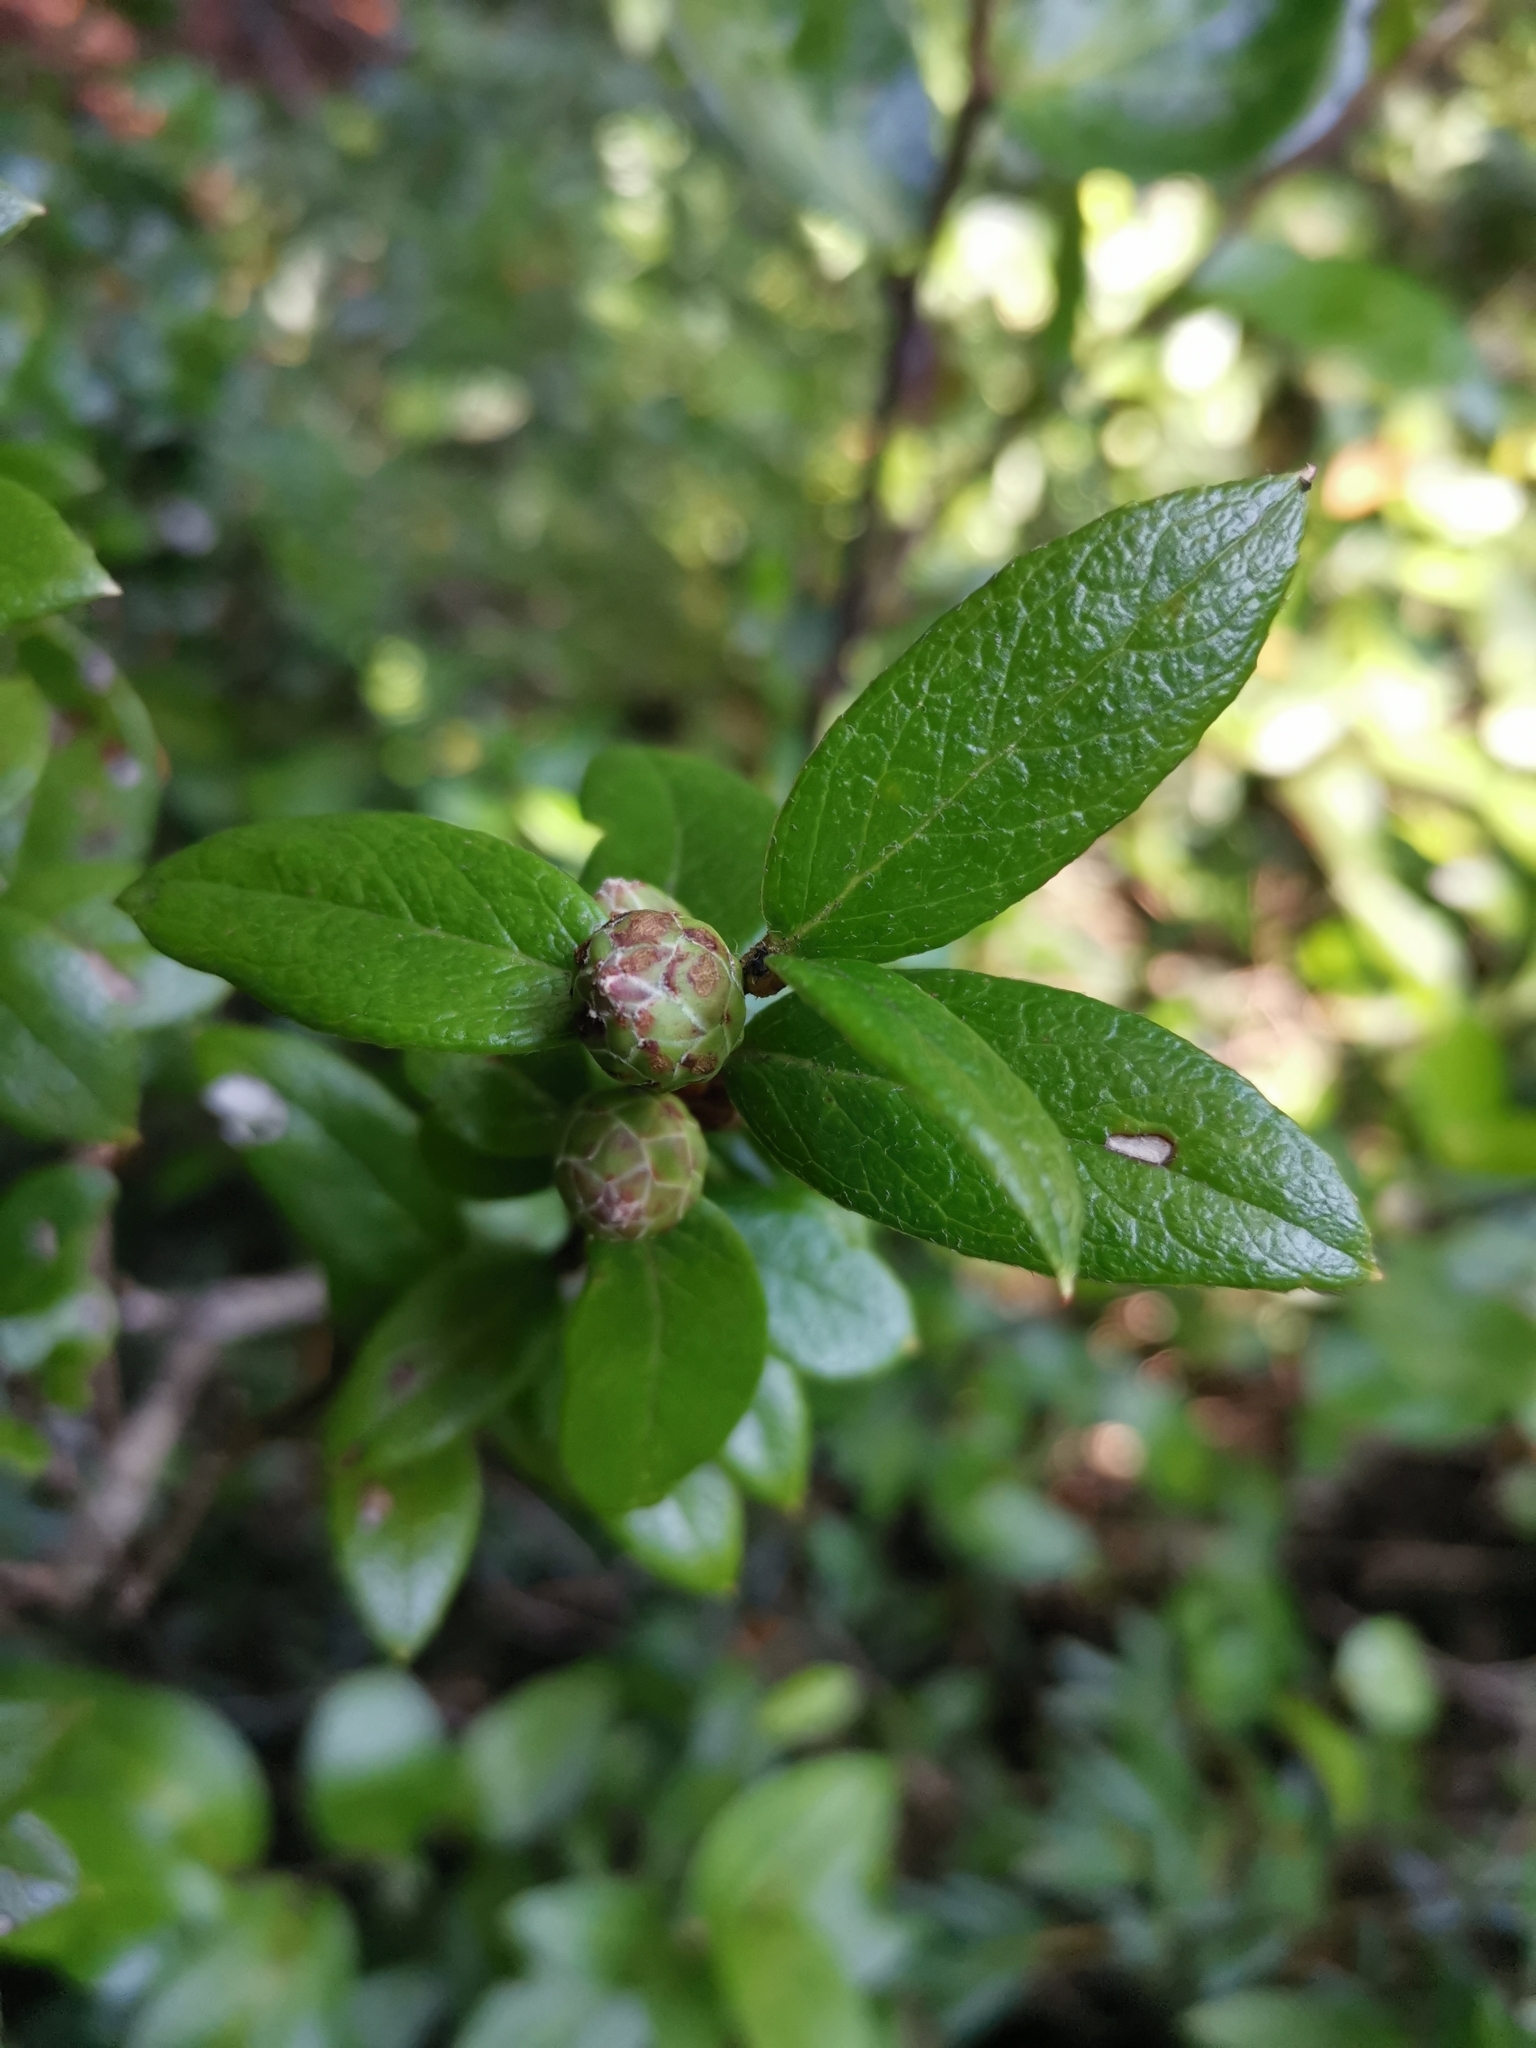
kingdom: Plantae
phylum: Tracheophyta
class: Magnoliopsida
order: Ericales
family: Ericaceae
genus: Gaultheria
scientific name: Gaultheria insana
